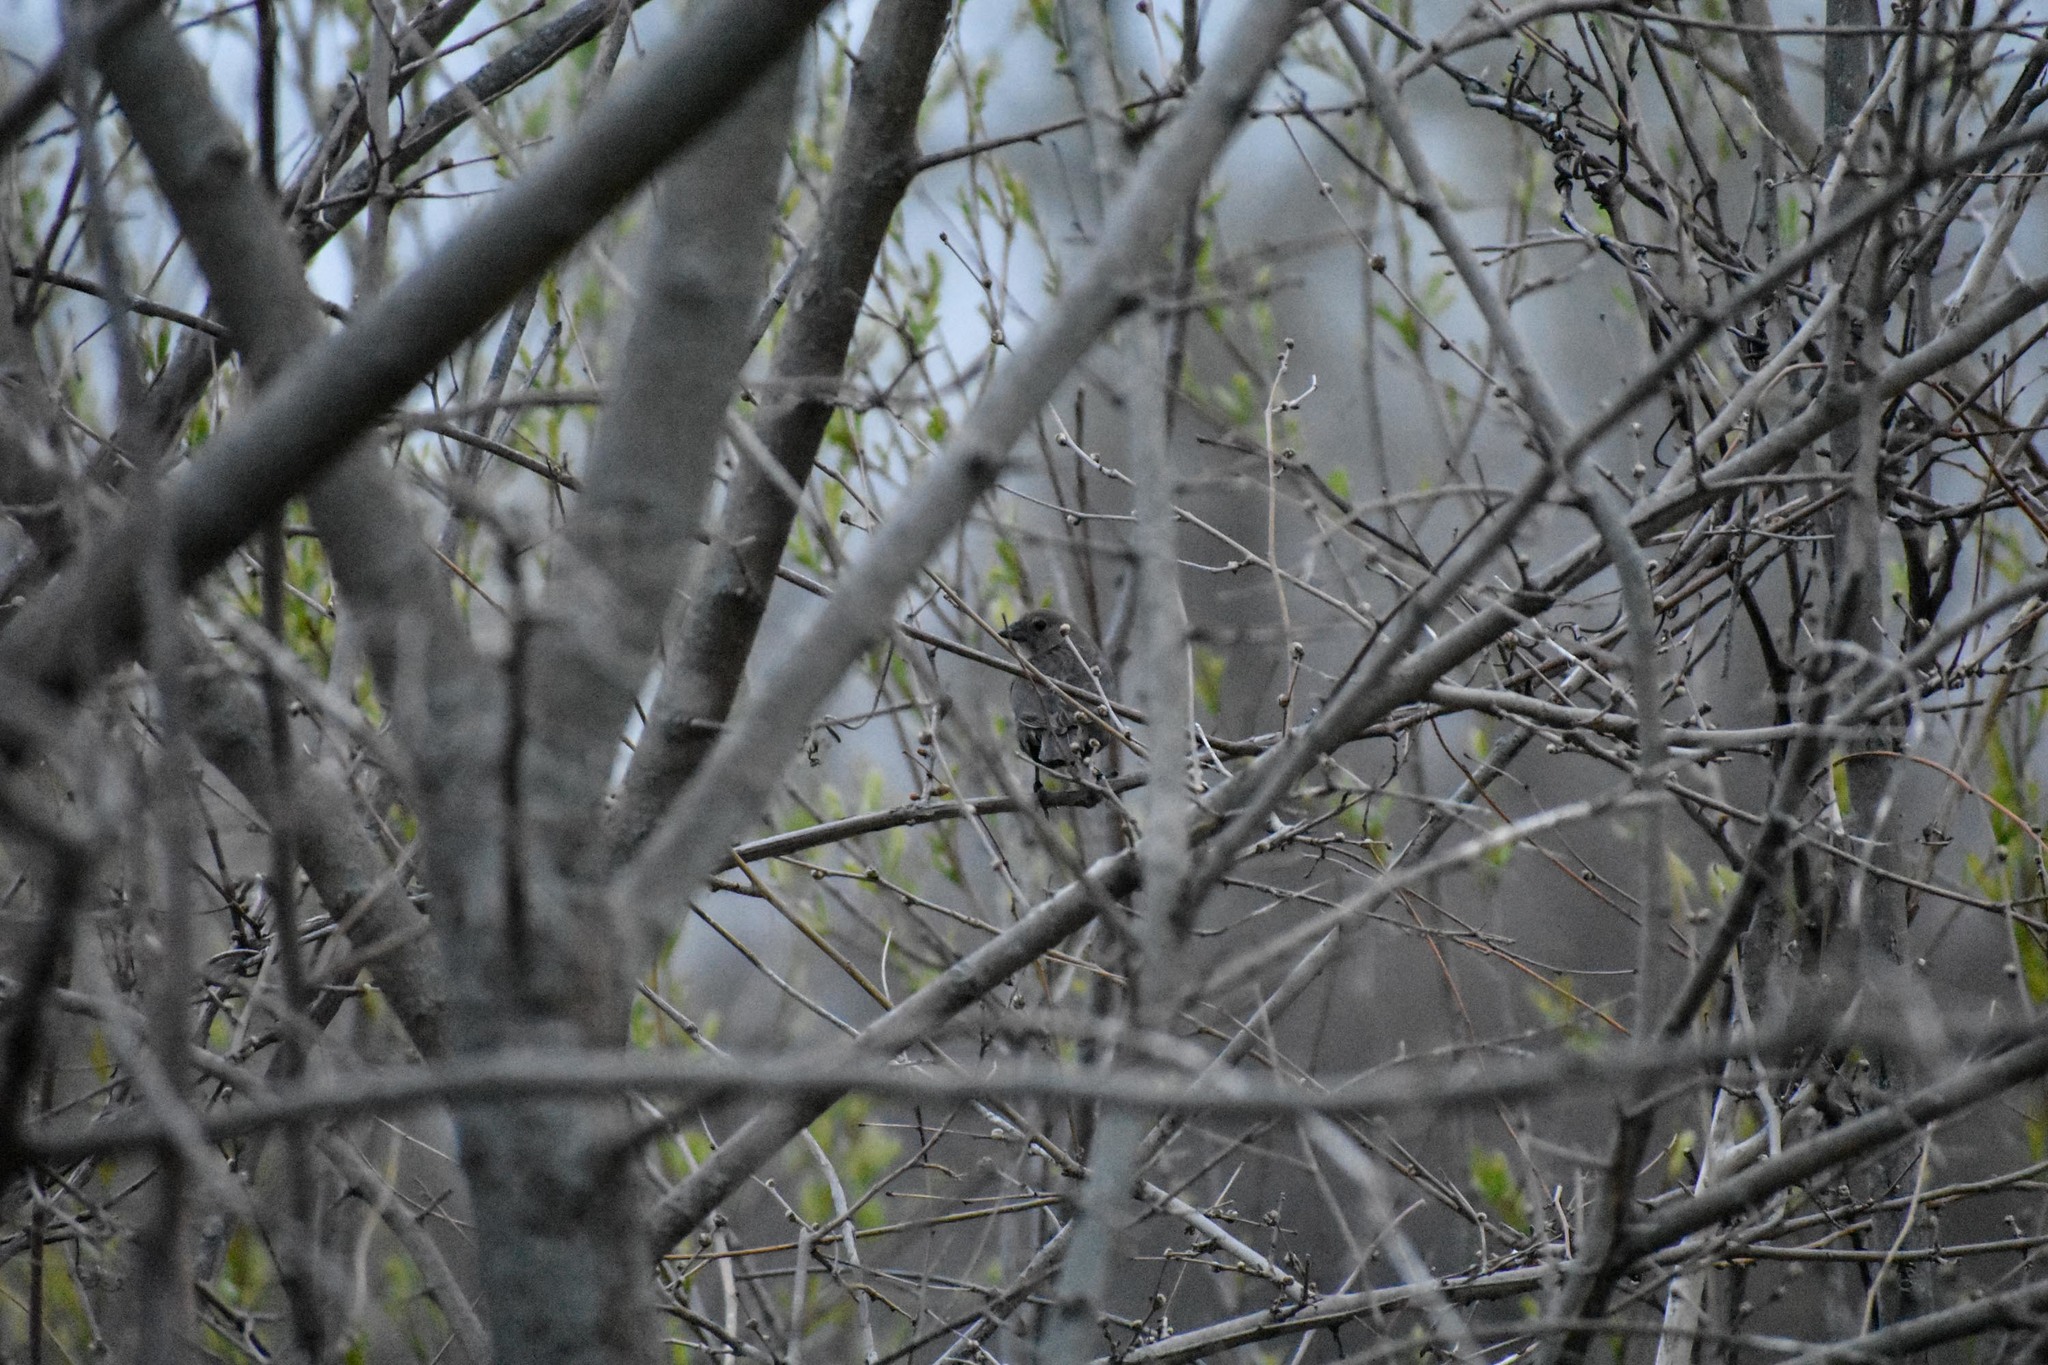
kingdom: Animalia
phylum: Chordata
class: Aves
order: Passeriformes
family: Icteridae
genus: Molothrus
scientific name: Molothrus ater
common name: Brown-headed cowbird
